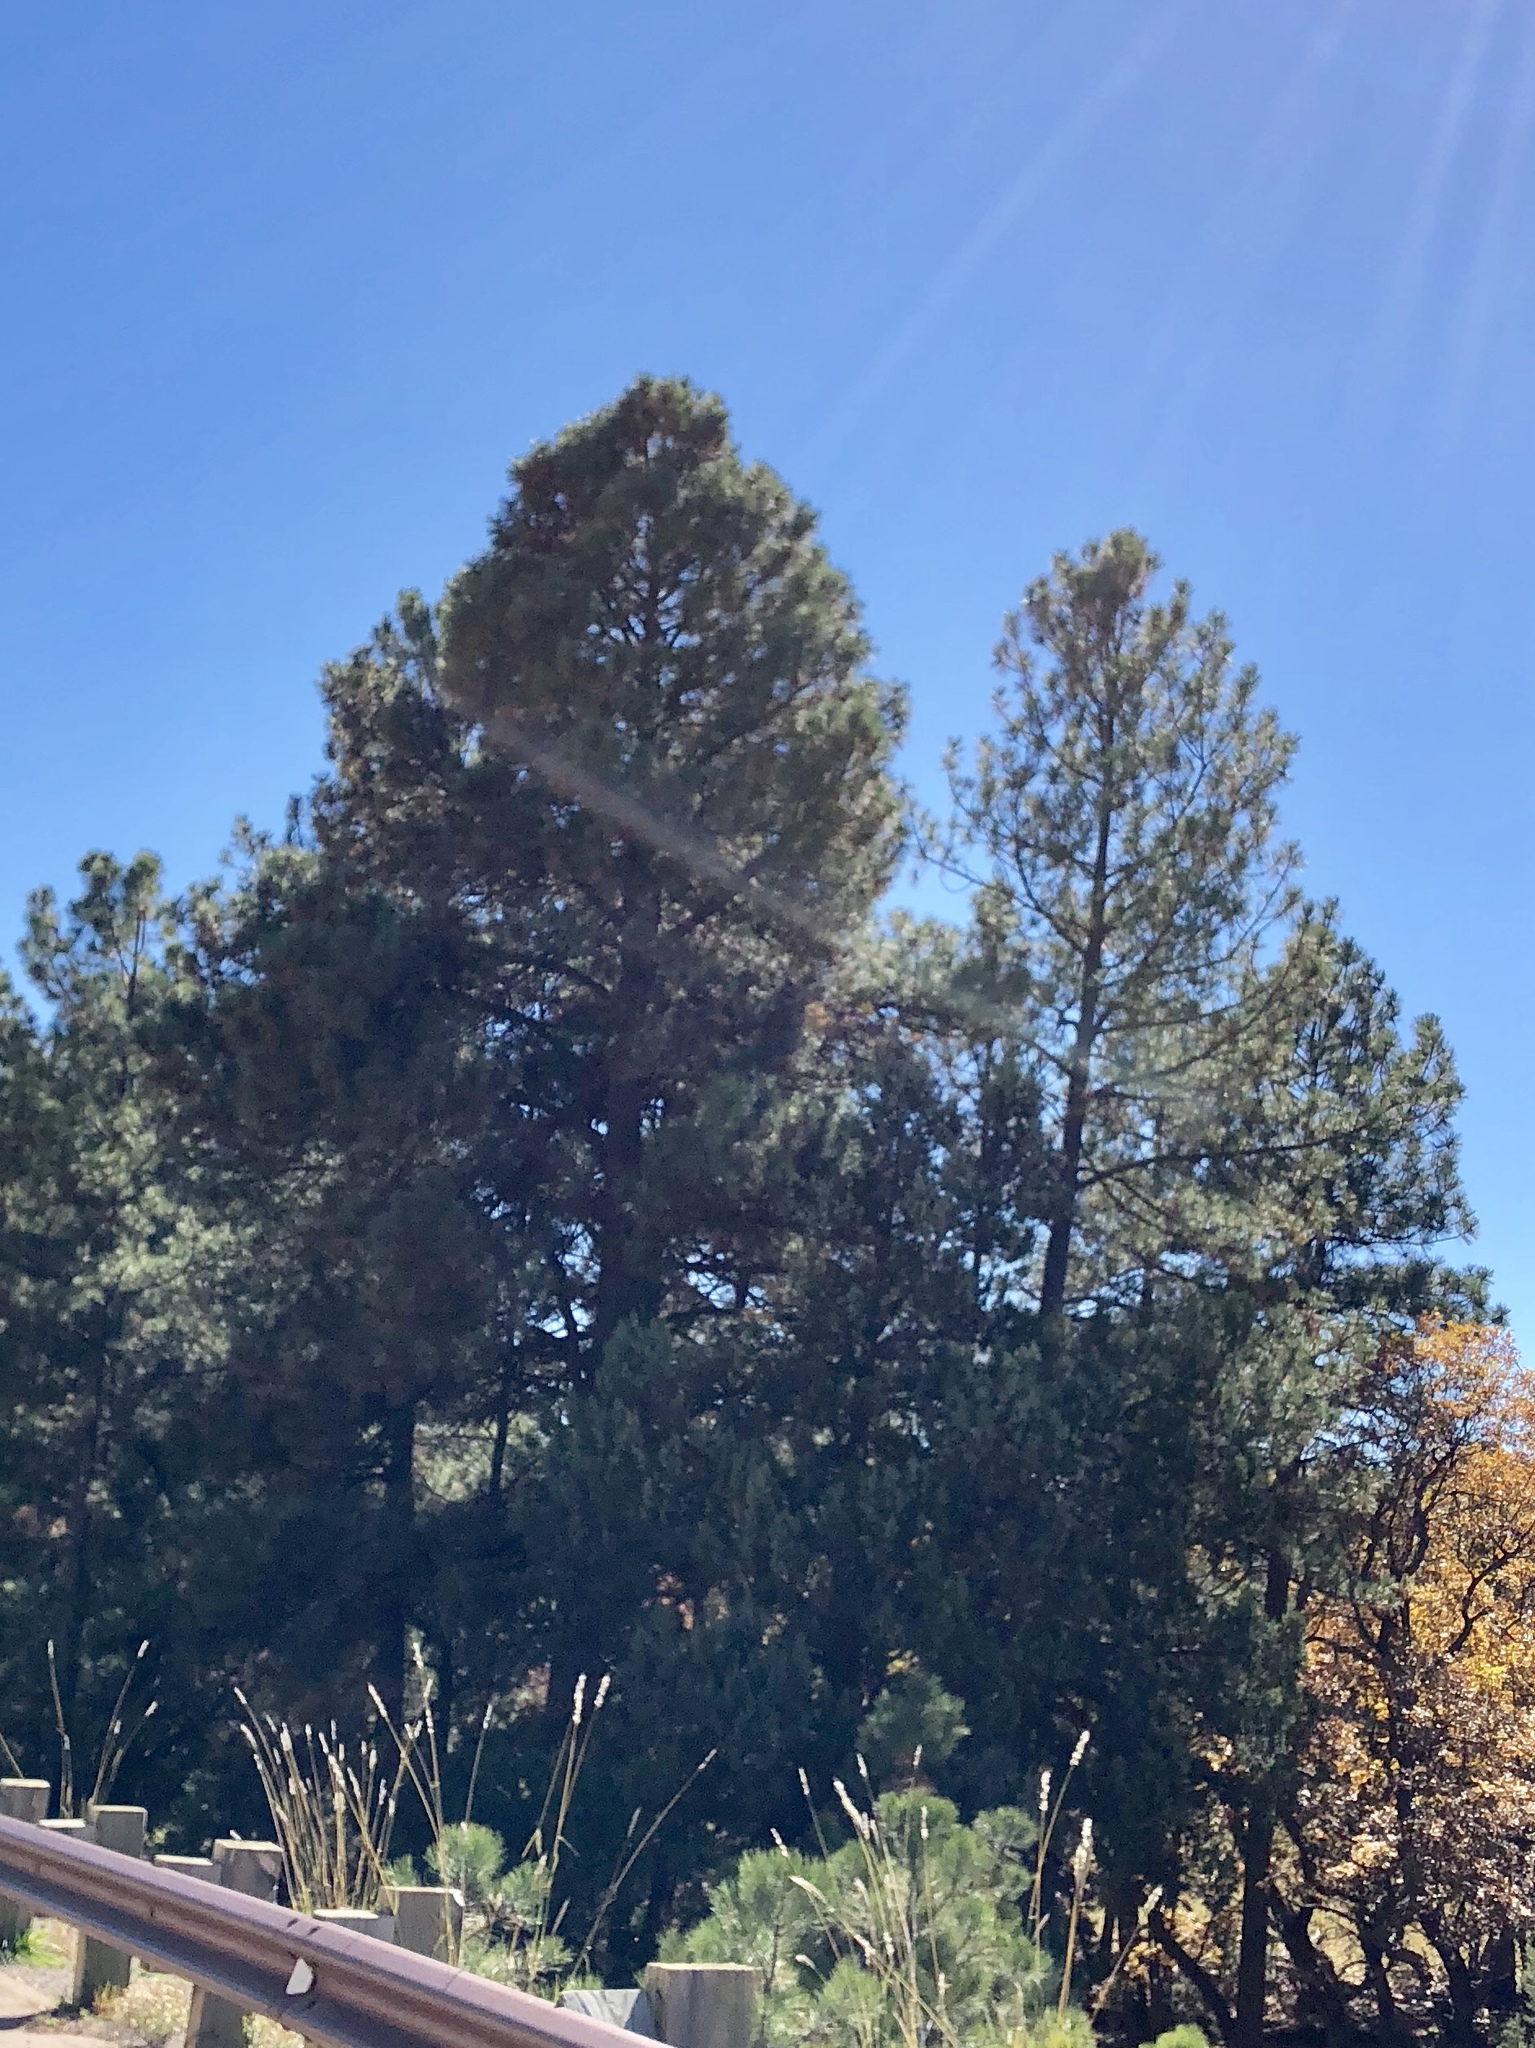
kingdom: Plantae
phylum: Tracheophyta
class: Pinopsida
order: Pinales
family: Pinaceae
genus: Pinus
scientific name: Pinus ponderosa
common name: Western yellow-pine
